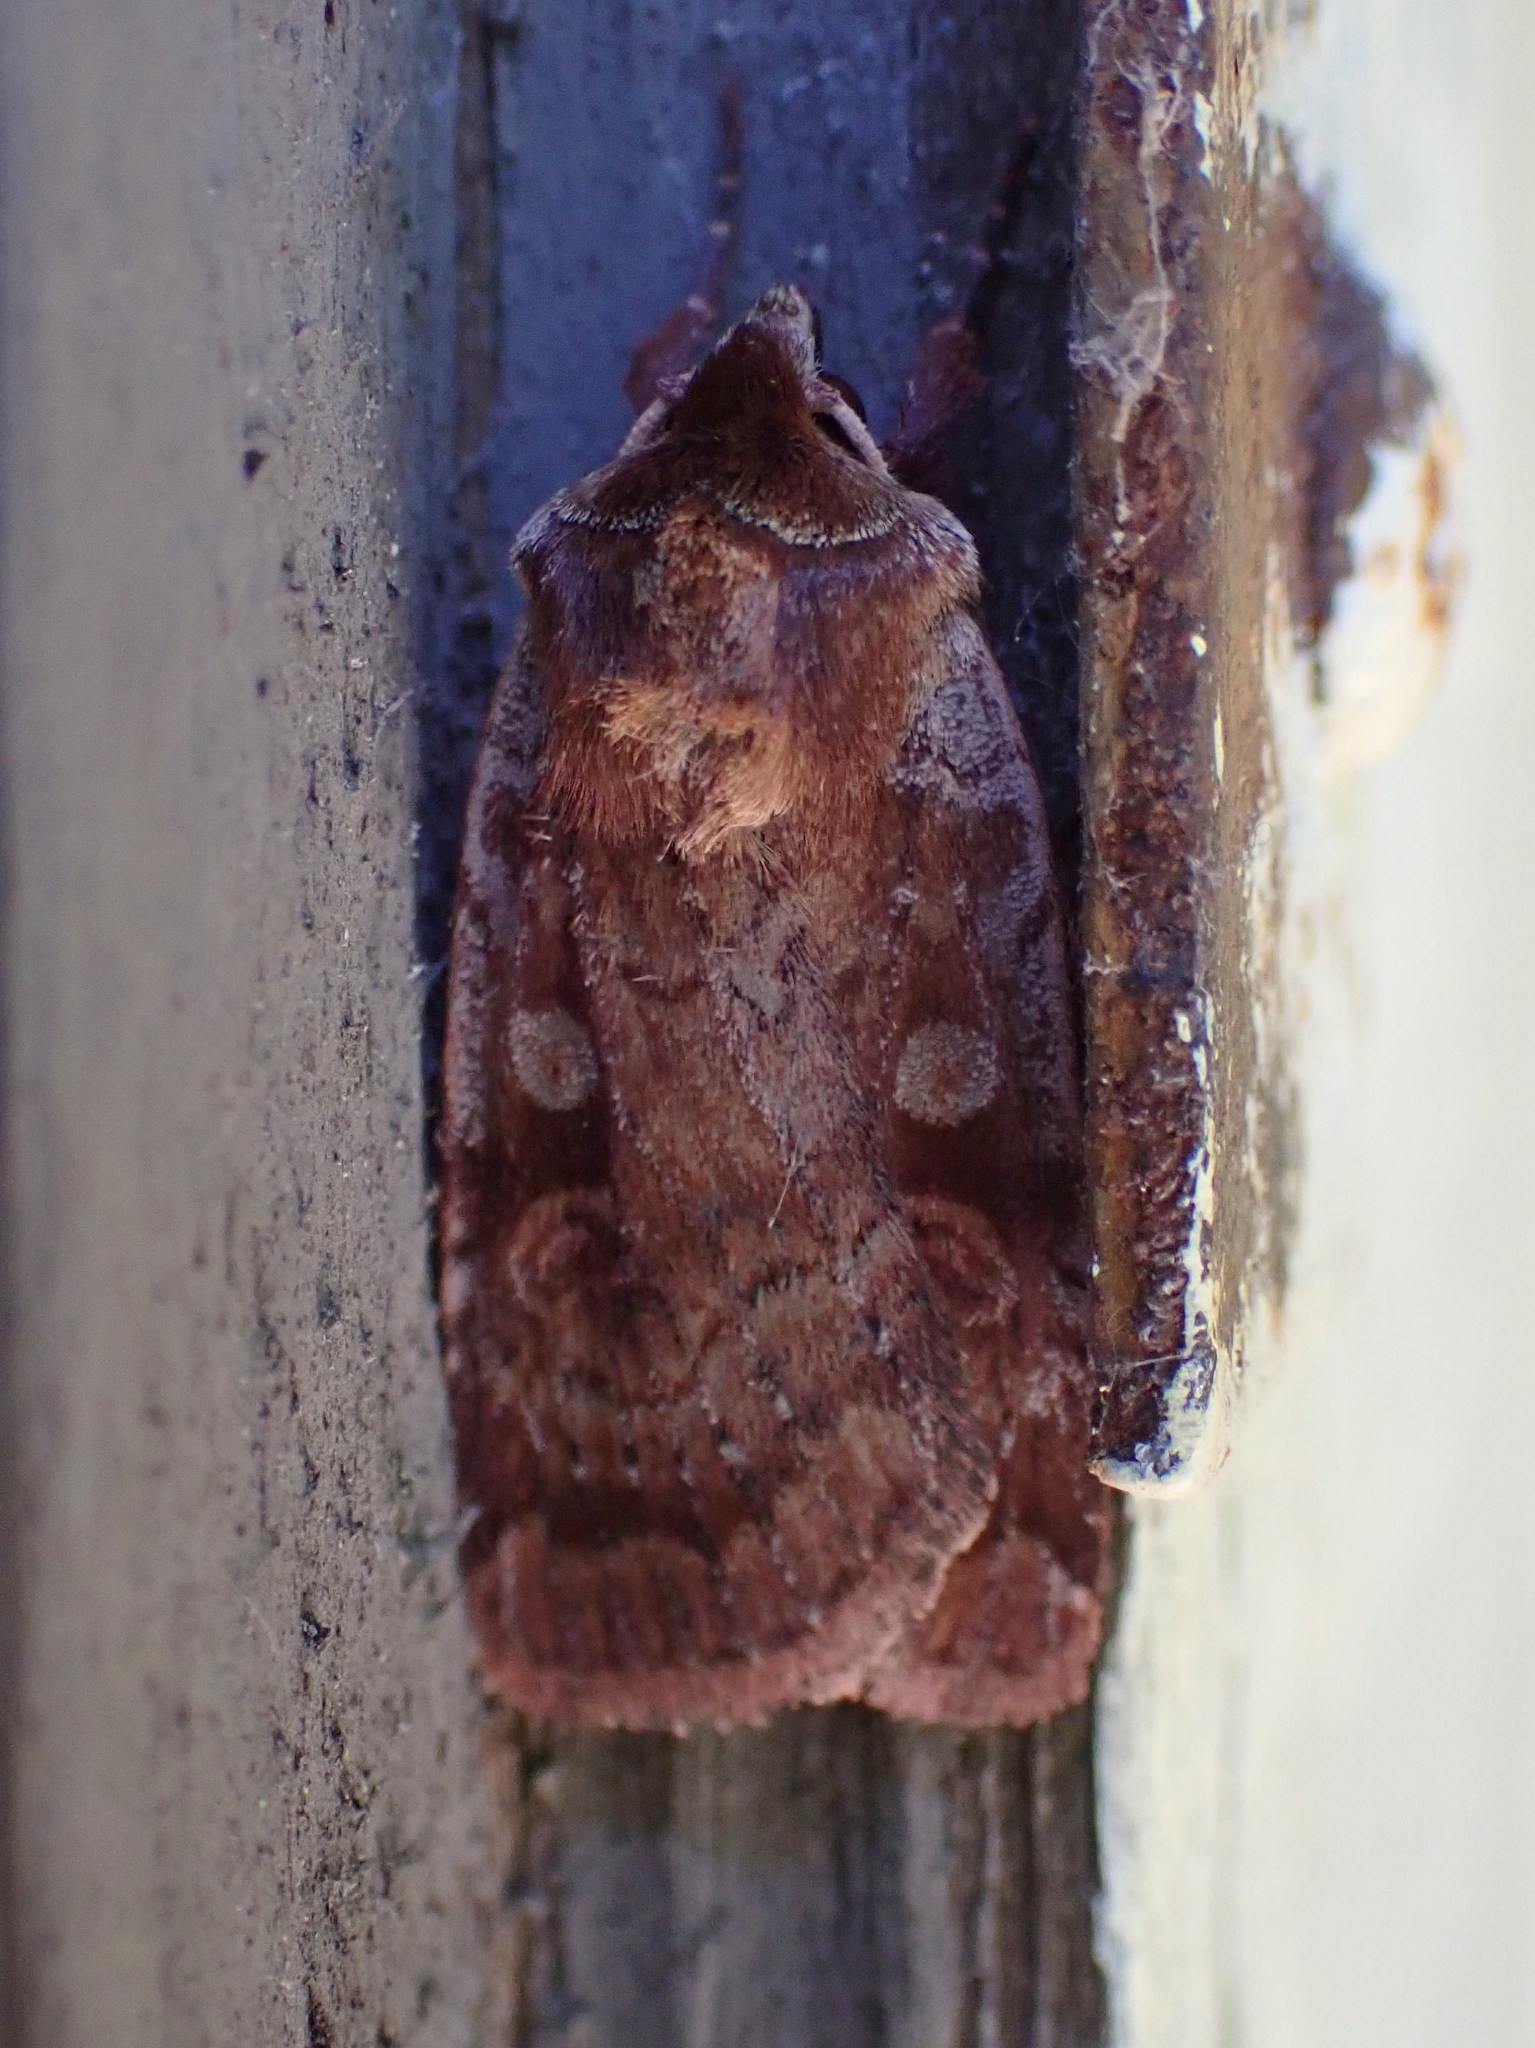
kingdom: Animalia
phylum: Arthropoda
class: Insecta
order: Lepidoptera
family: Noctuidae
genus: Lycophotia
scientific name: Lycophotia phyllophora
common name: Lycophotia moth
